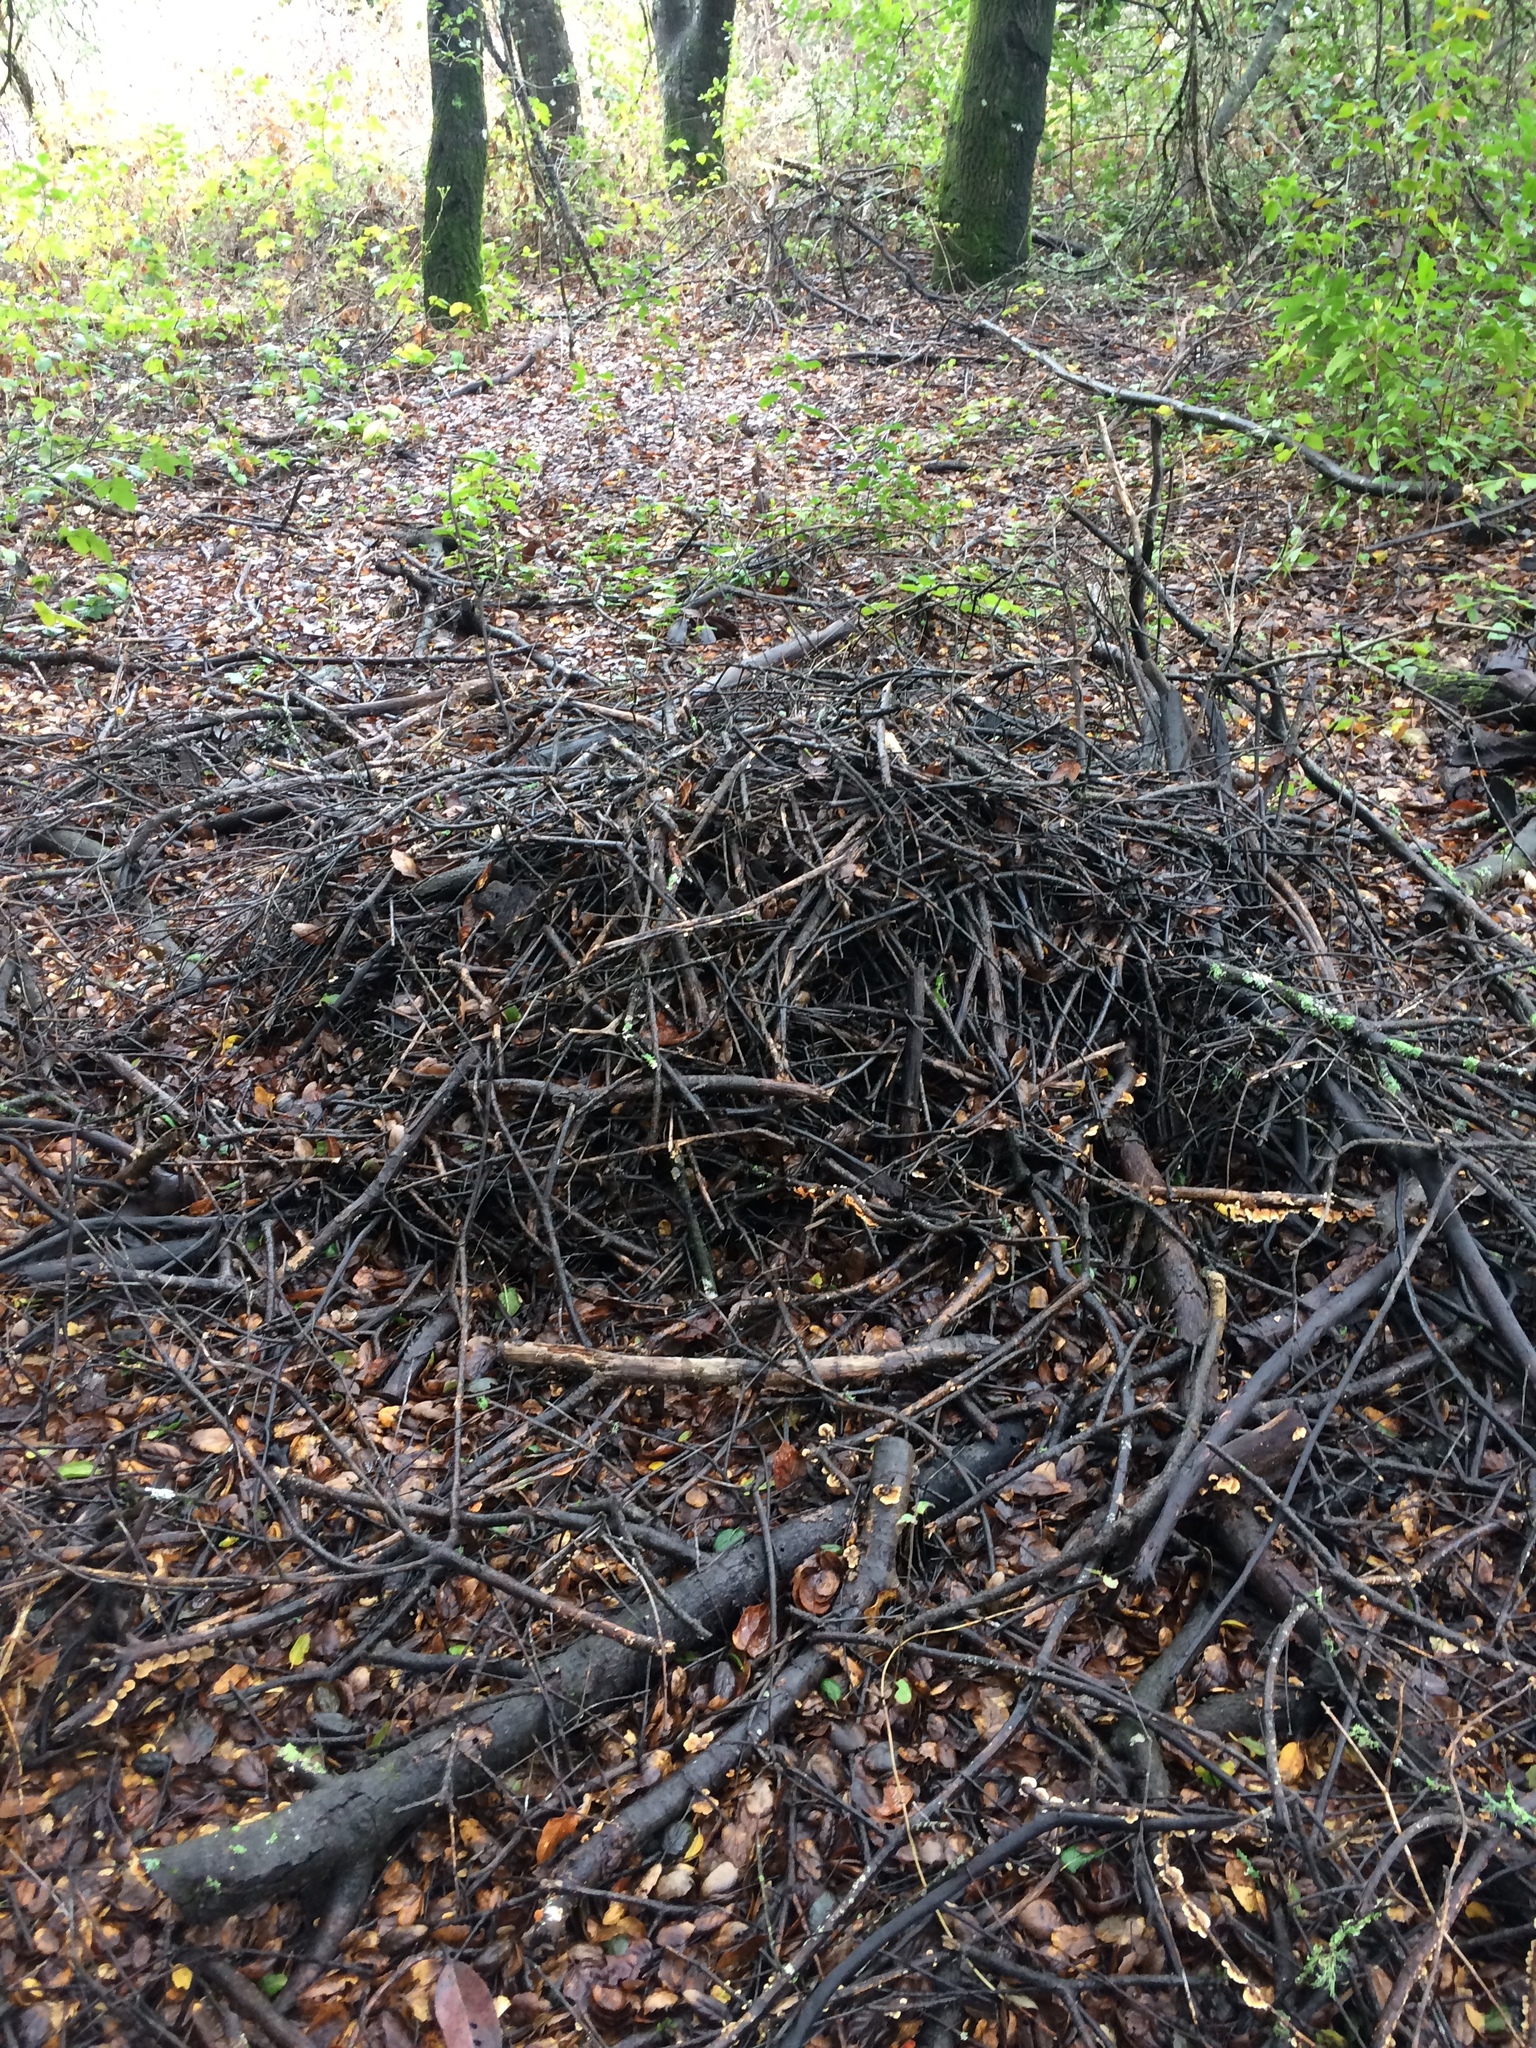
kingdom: Animalia
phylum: Chordata
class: Mammalia
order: Rodentia
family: Cricetidae
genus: Neotoma
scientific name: Neotoma fuscipes
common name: Dusky-footed woodrat
